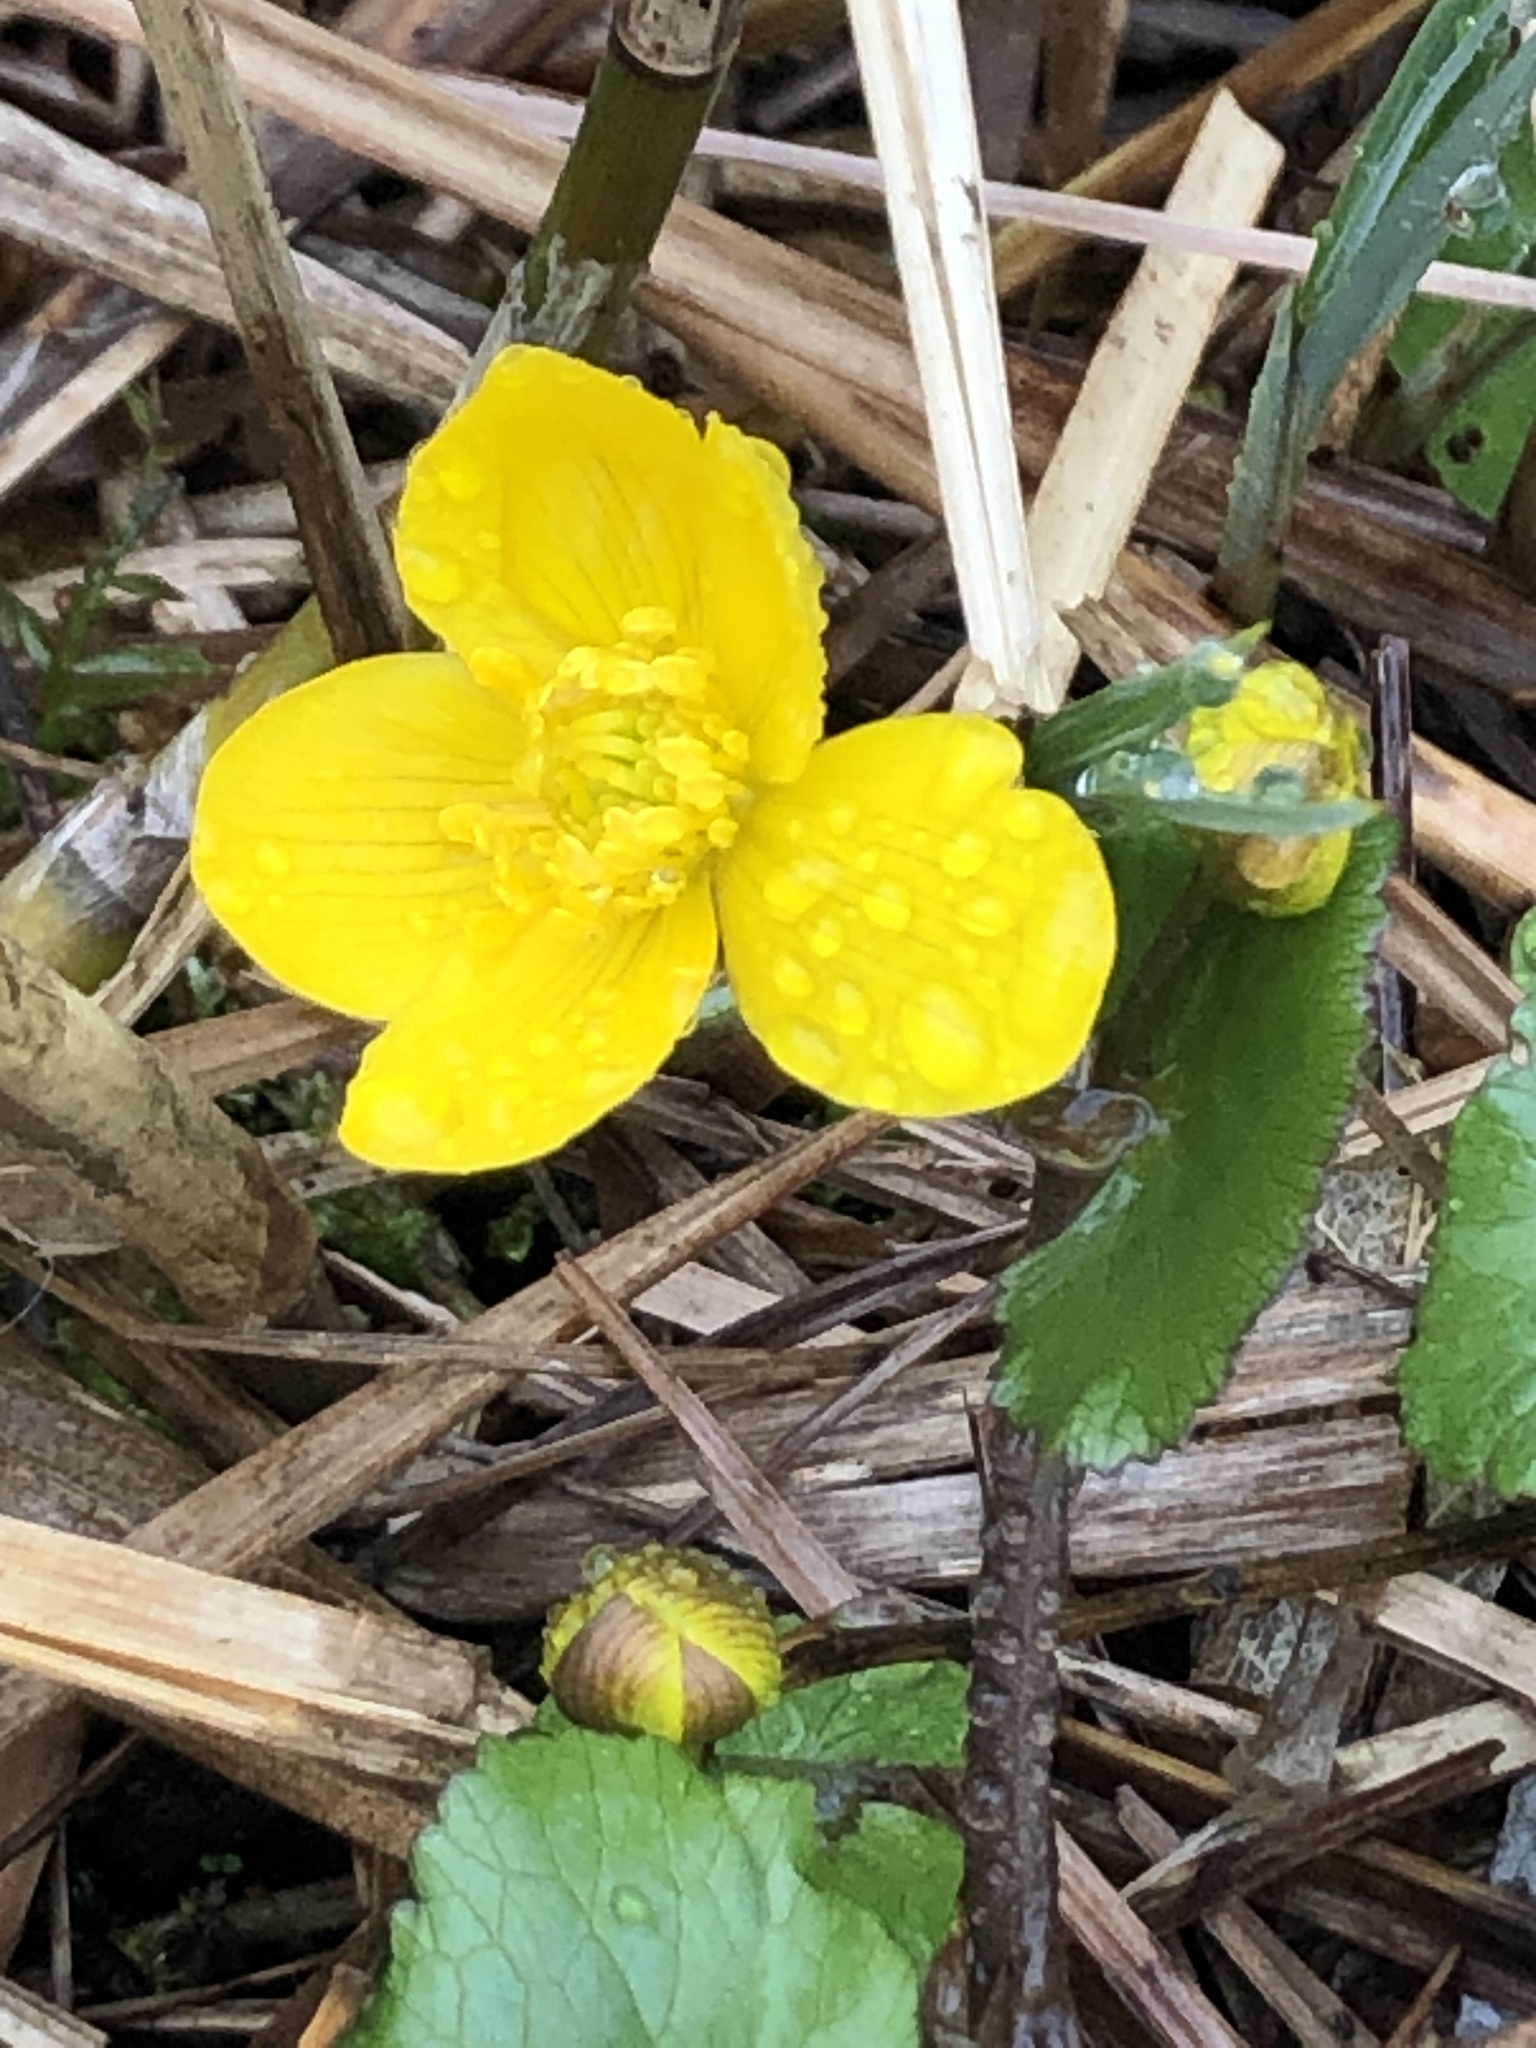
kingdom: Plantae
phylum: Tracheophyta
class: Magnoliopsida
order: Ranunculales
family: Ranunculaceae
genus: Caltha
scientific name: Caltha palustris
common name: Marsh marigold
